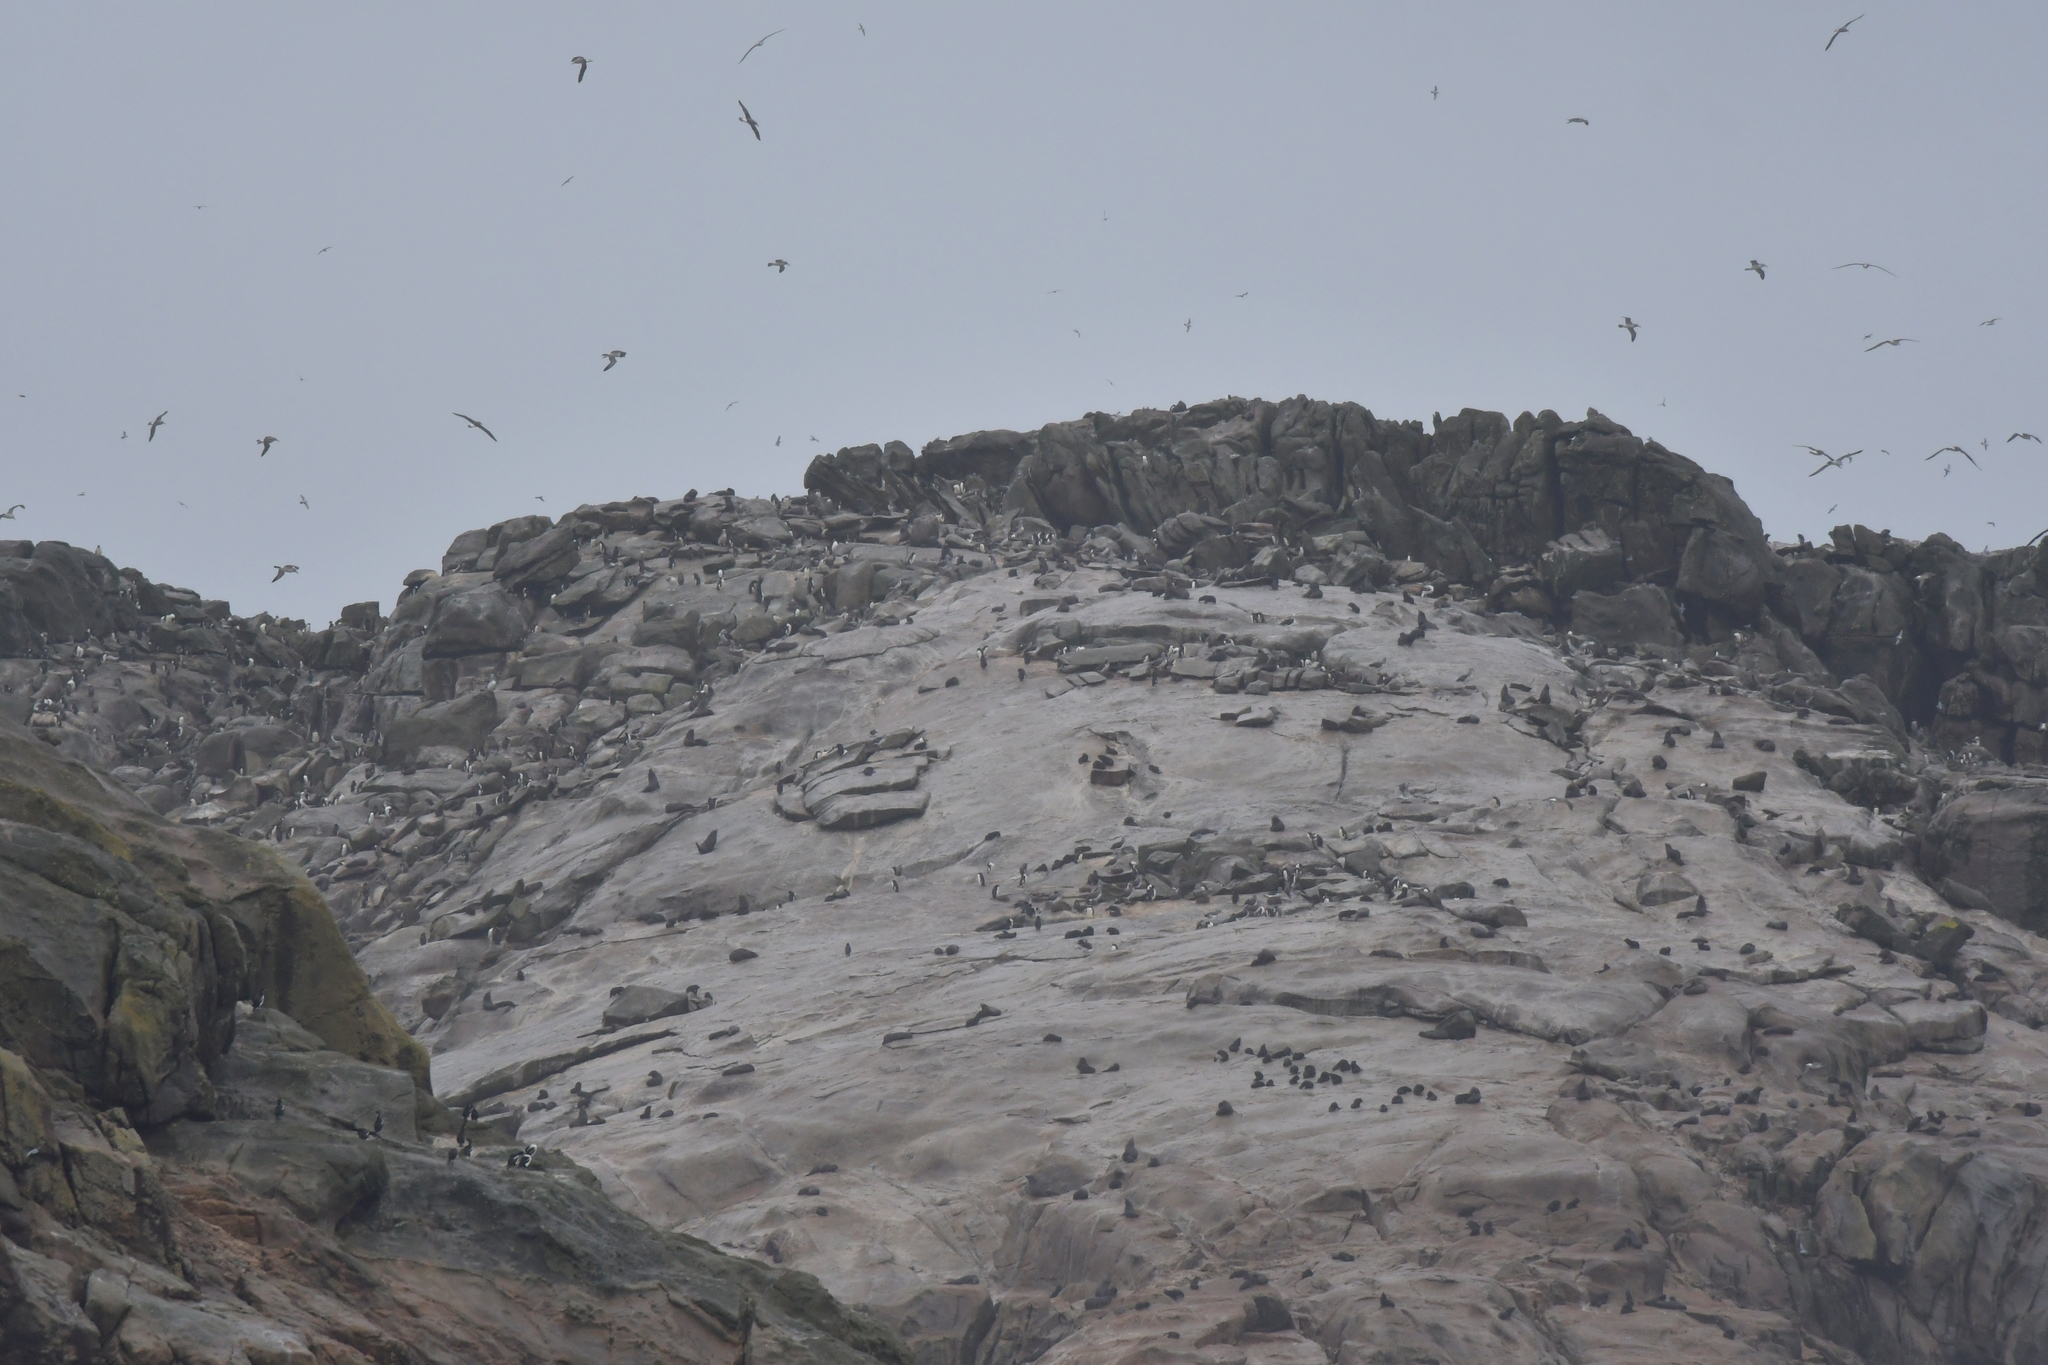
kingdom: Animalia
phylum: Chordata
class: Mammalia
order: Carnivora
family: Otariidae
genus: Arctocephalus
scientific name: Arctocephalus forsteri
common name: New zealand fur seal
